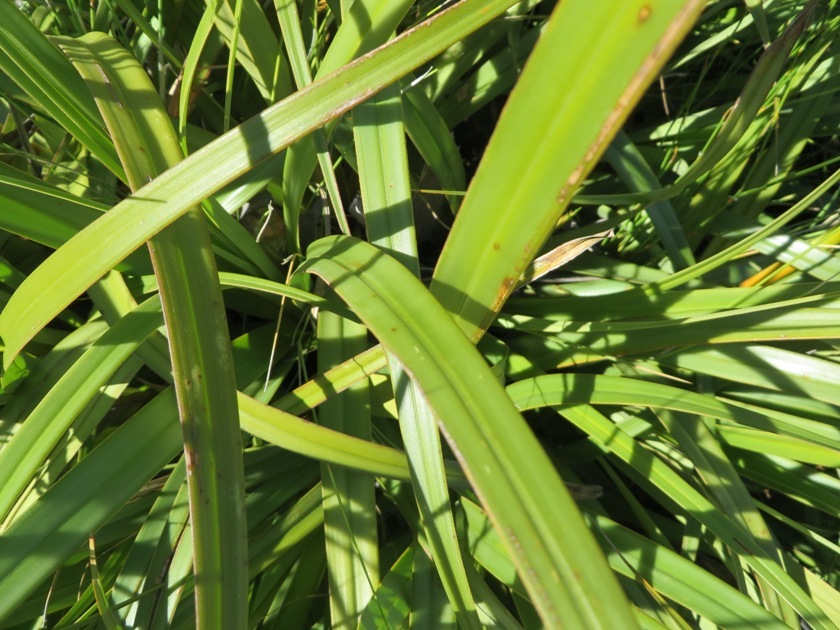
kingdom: Plantae
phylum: Tracheophyta
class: Liliopsida
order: Poales
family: Cyperaceae
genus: Tetraria
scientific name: Tetraria thermalis
